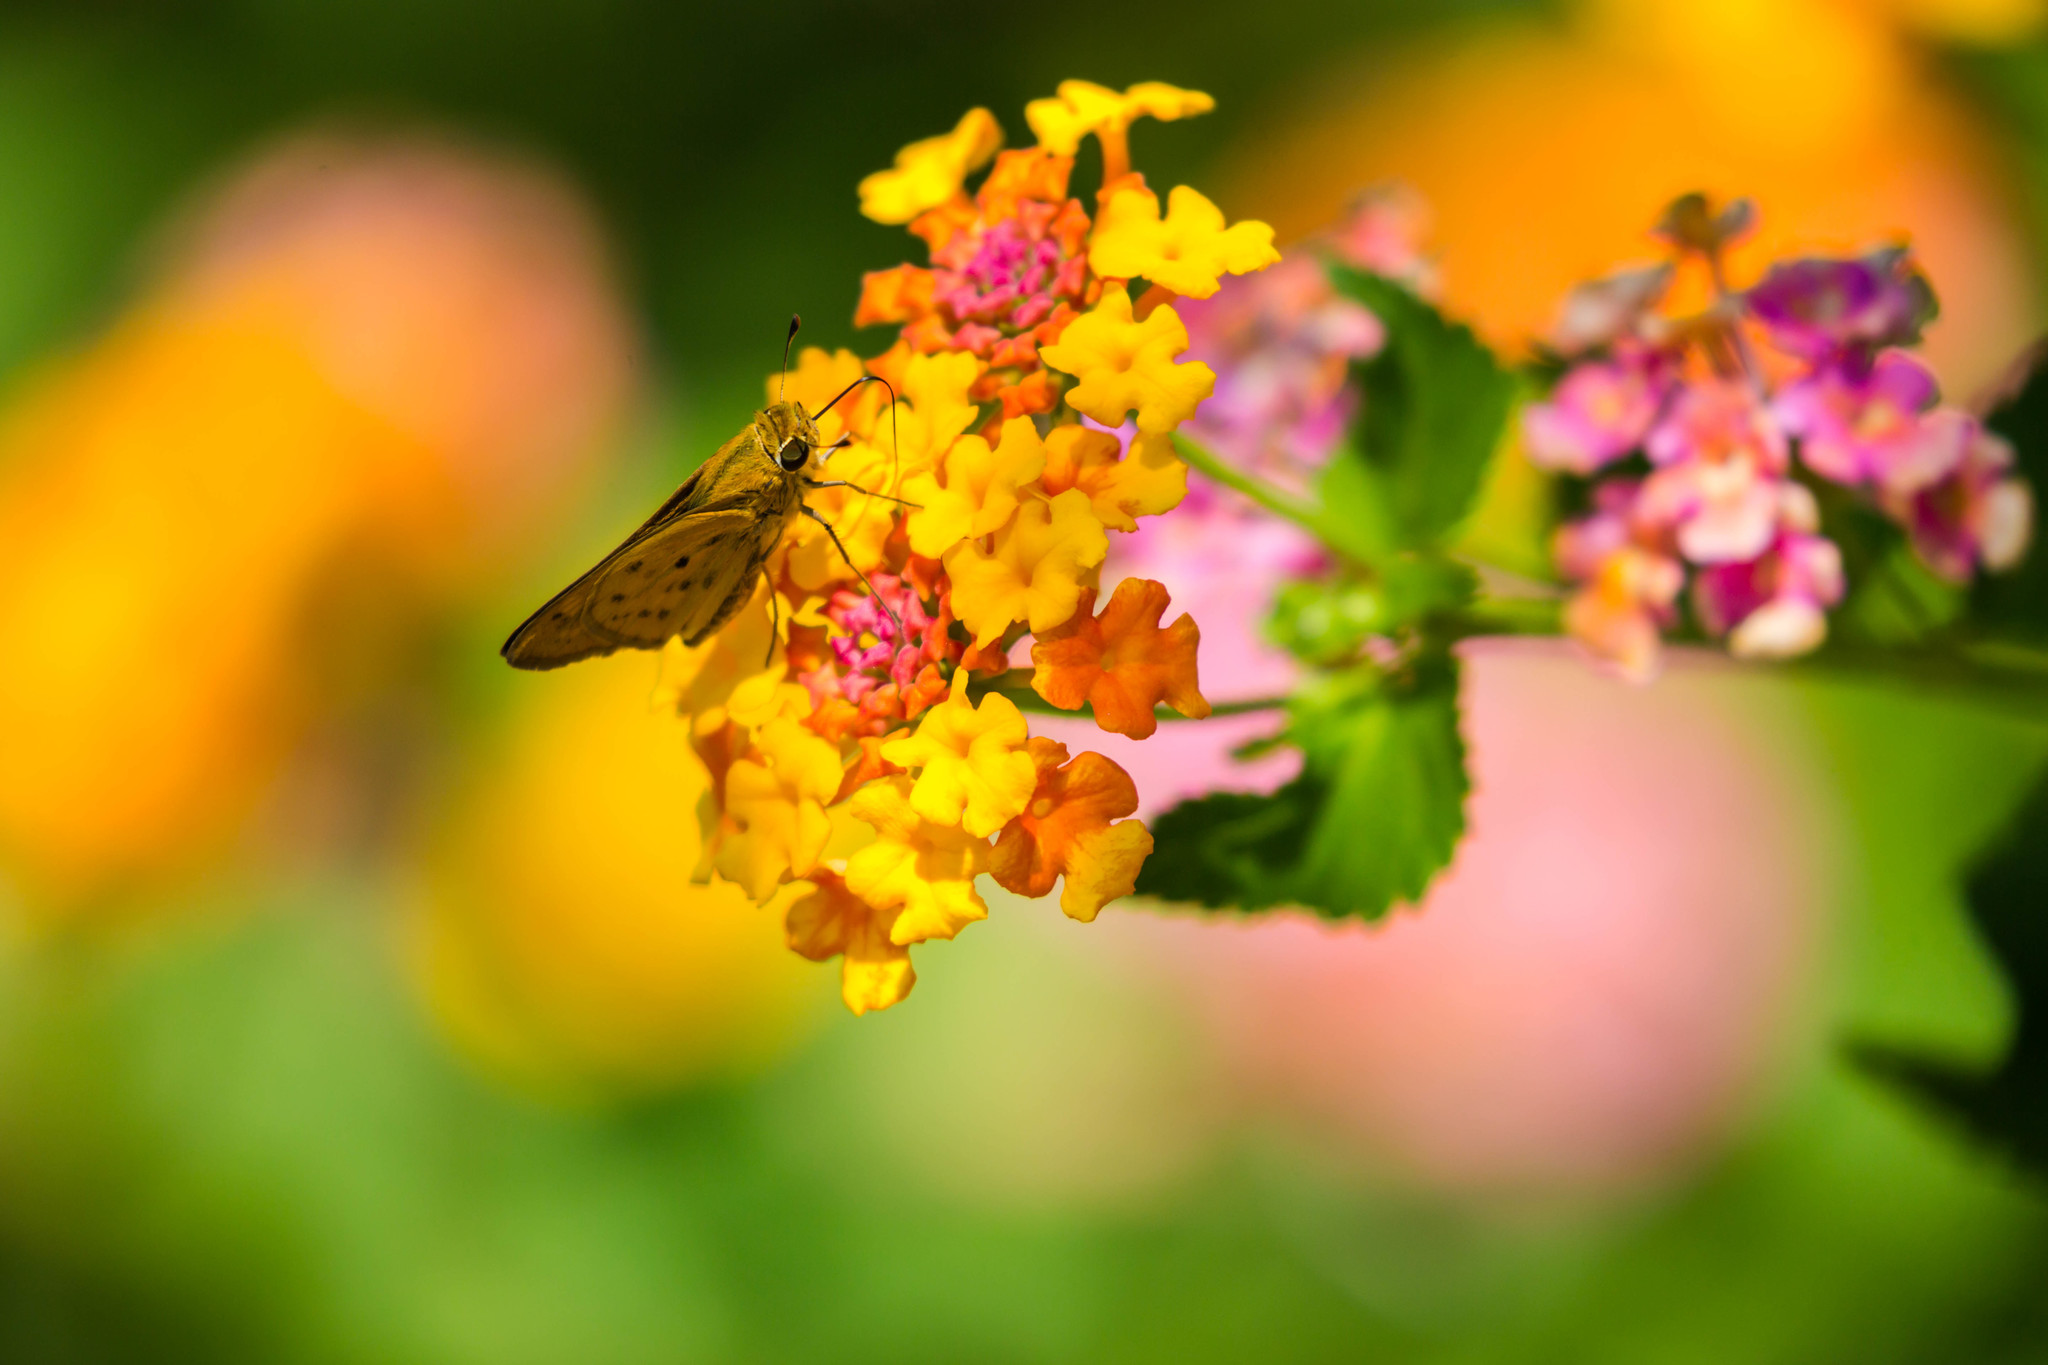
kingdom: Animalia
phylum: Arthropoda
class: Insecta
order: Lepidoptera
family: Hesperiidae
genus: Hylephila
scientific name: Hylephila phyleus
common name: Fiery skipper
